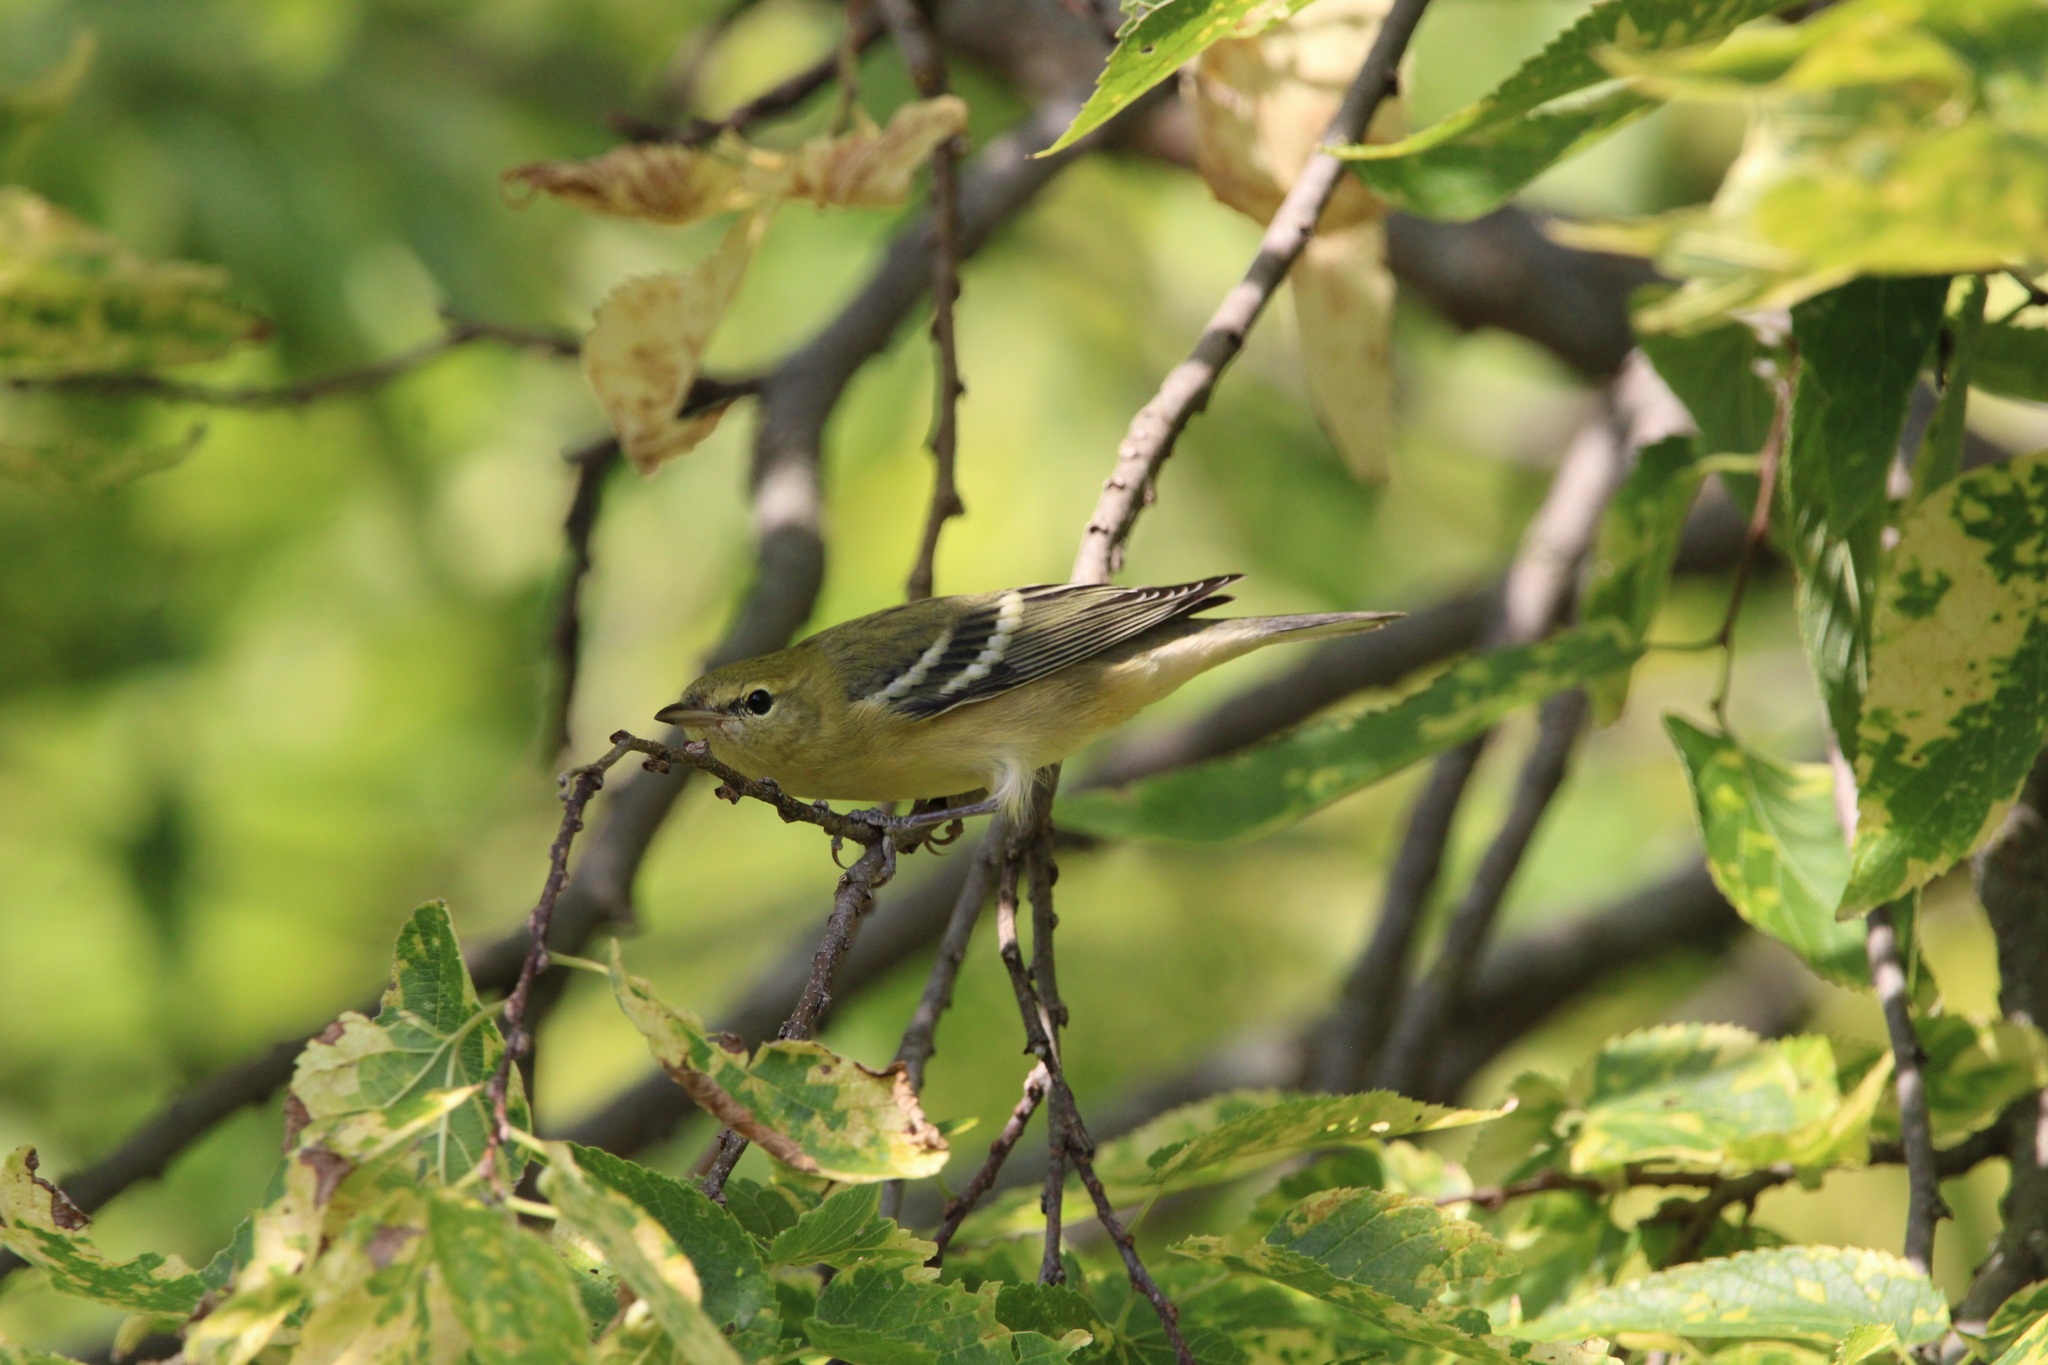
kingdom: Animalia
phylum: Chordata
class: Aves
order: Passeriformes
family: Parulidae
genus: Setophaga
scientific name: Setophaga castanea
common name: Bay-breasted warbler
